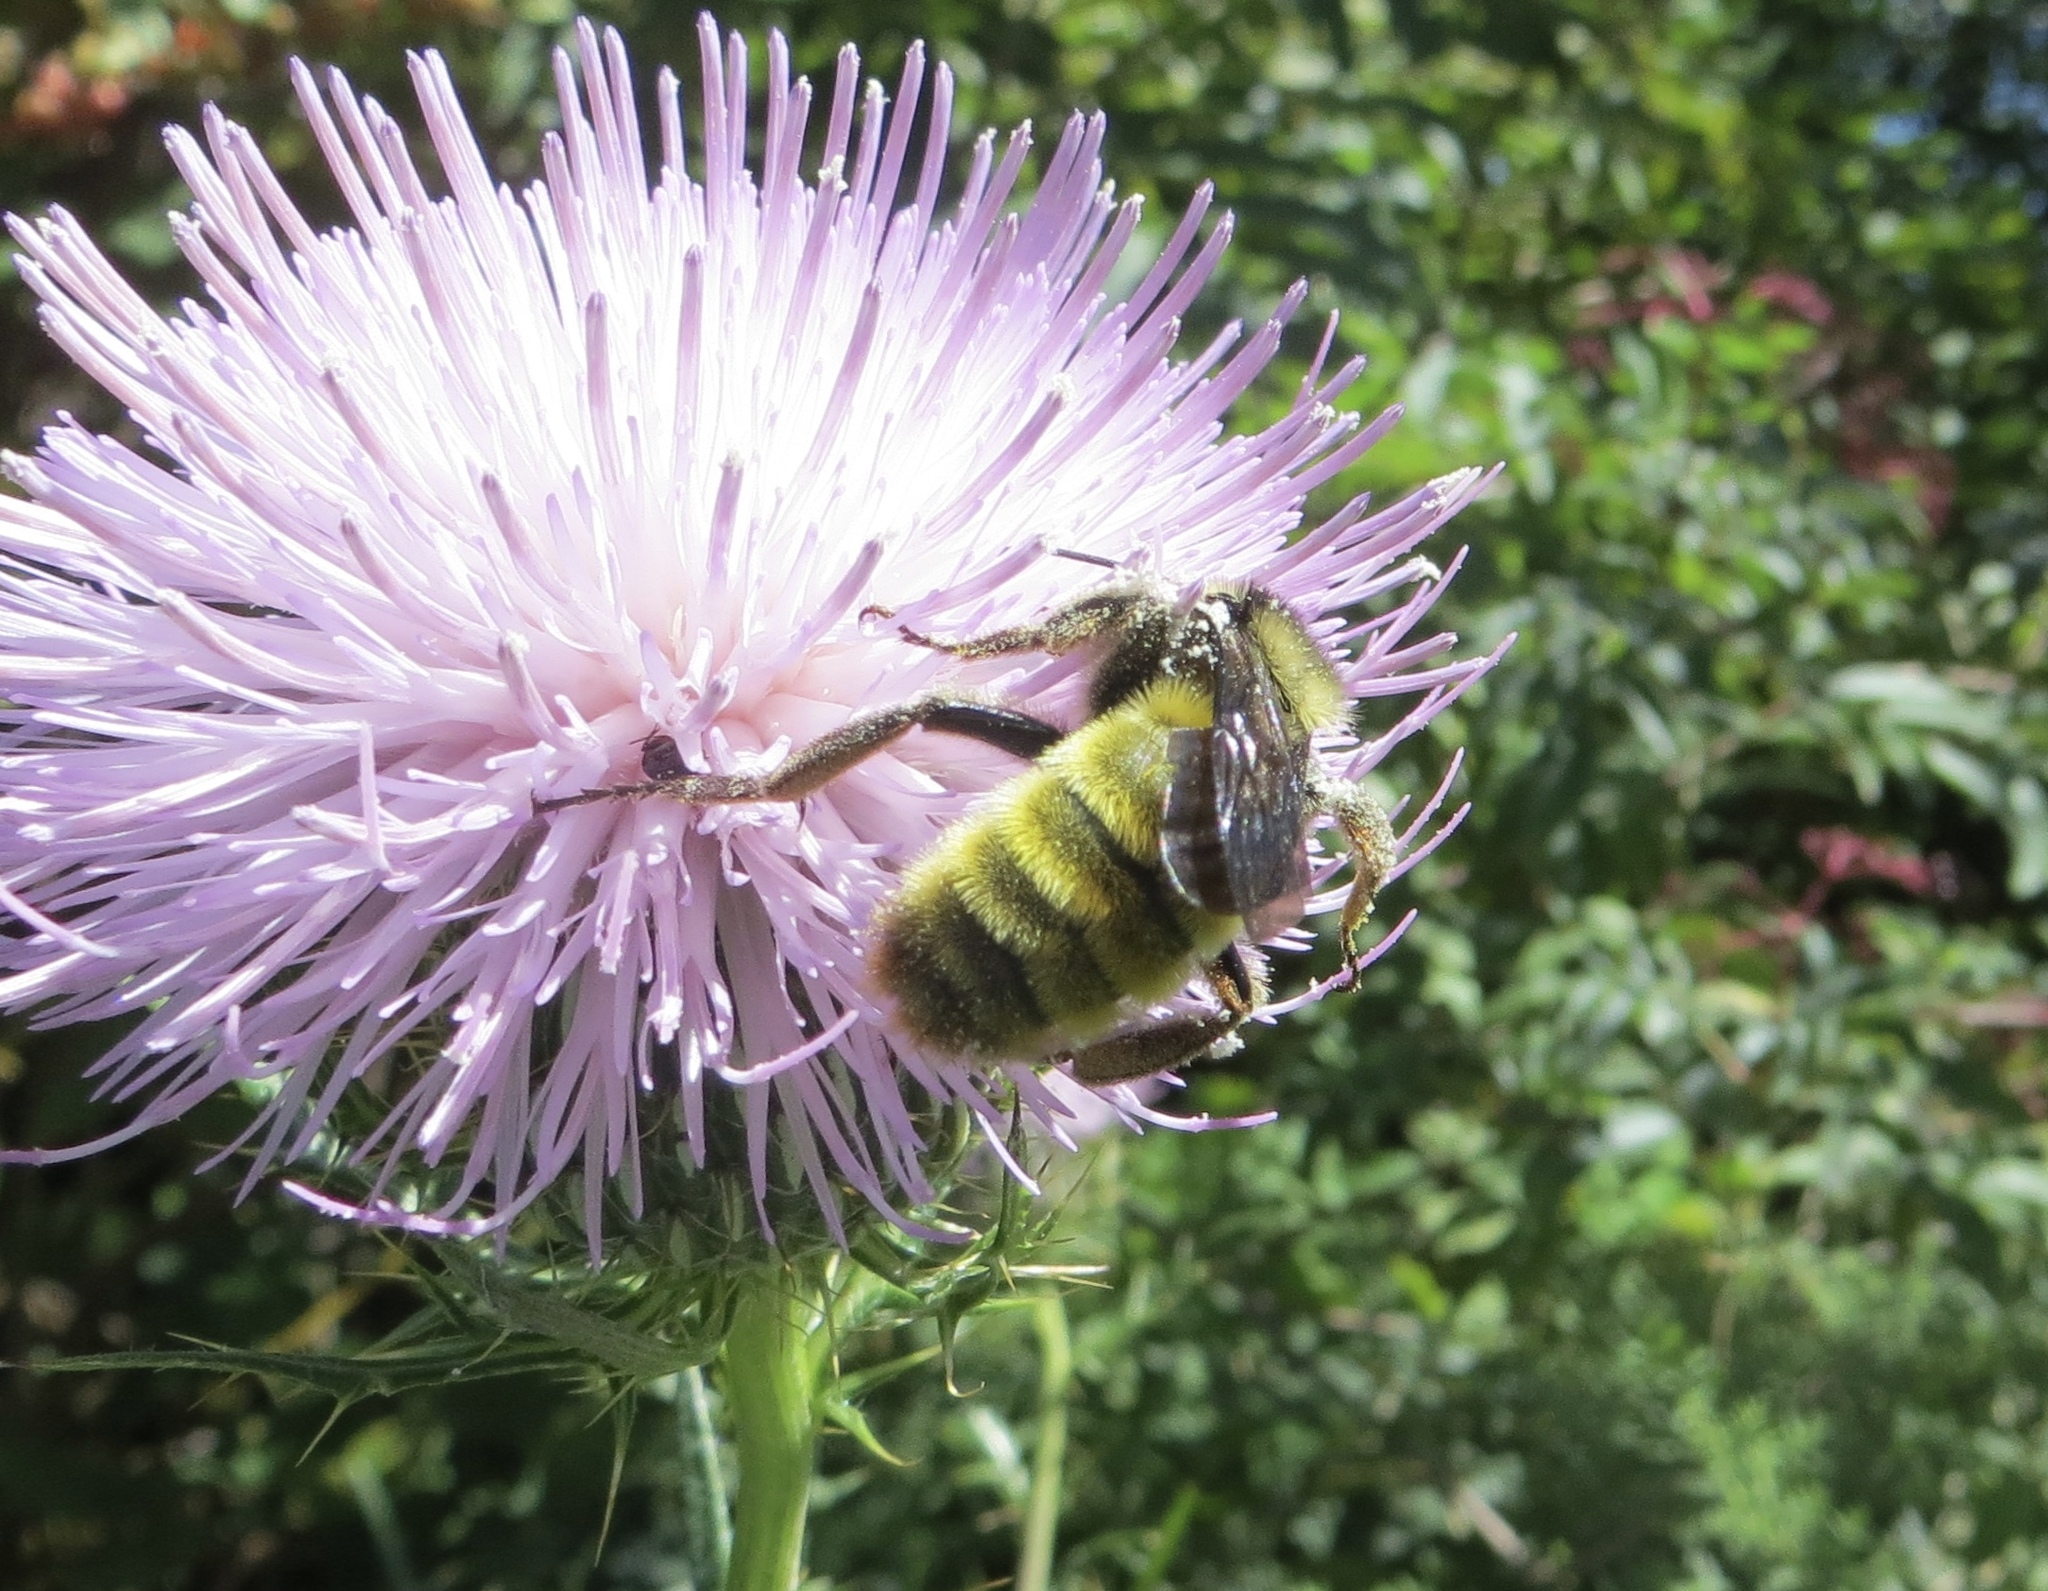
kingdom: Animalia
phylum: Arthropoda
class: Insecta
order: Hymenoptera
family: Apidae
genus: Bombus
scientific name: Bombus pensylvanicus
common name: Bumble bee
